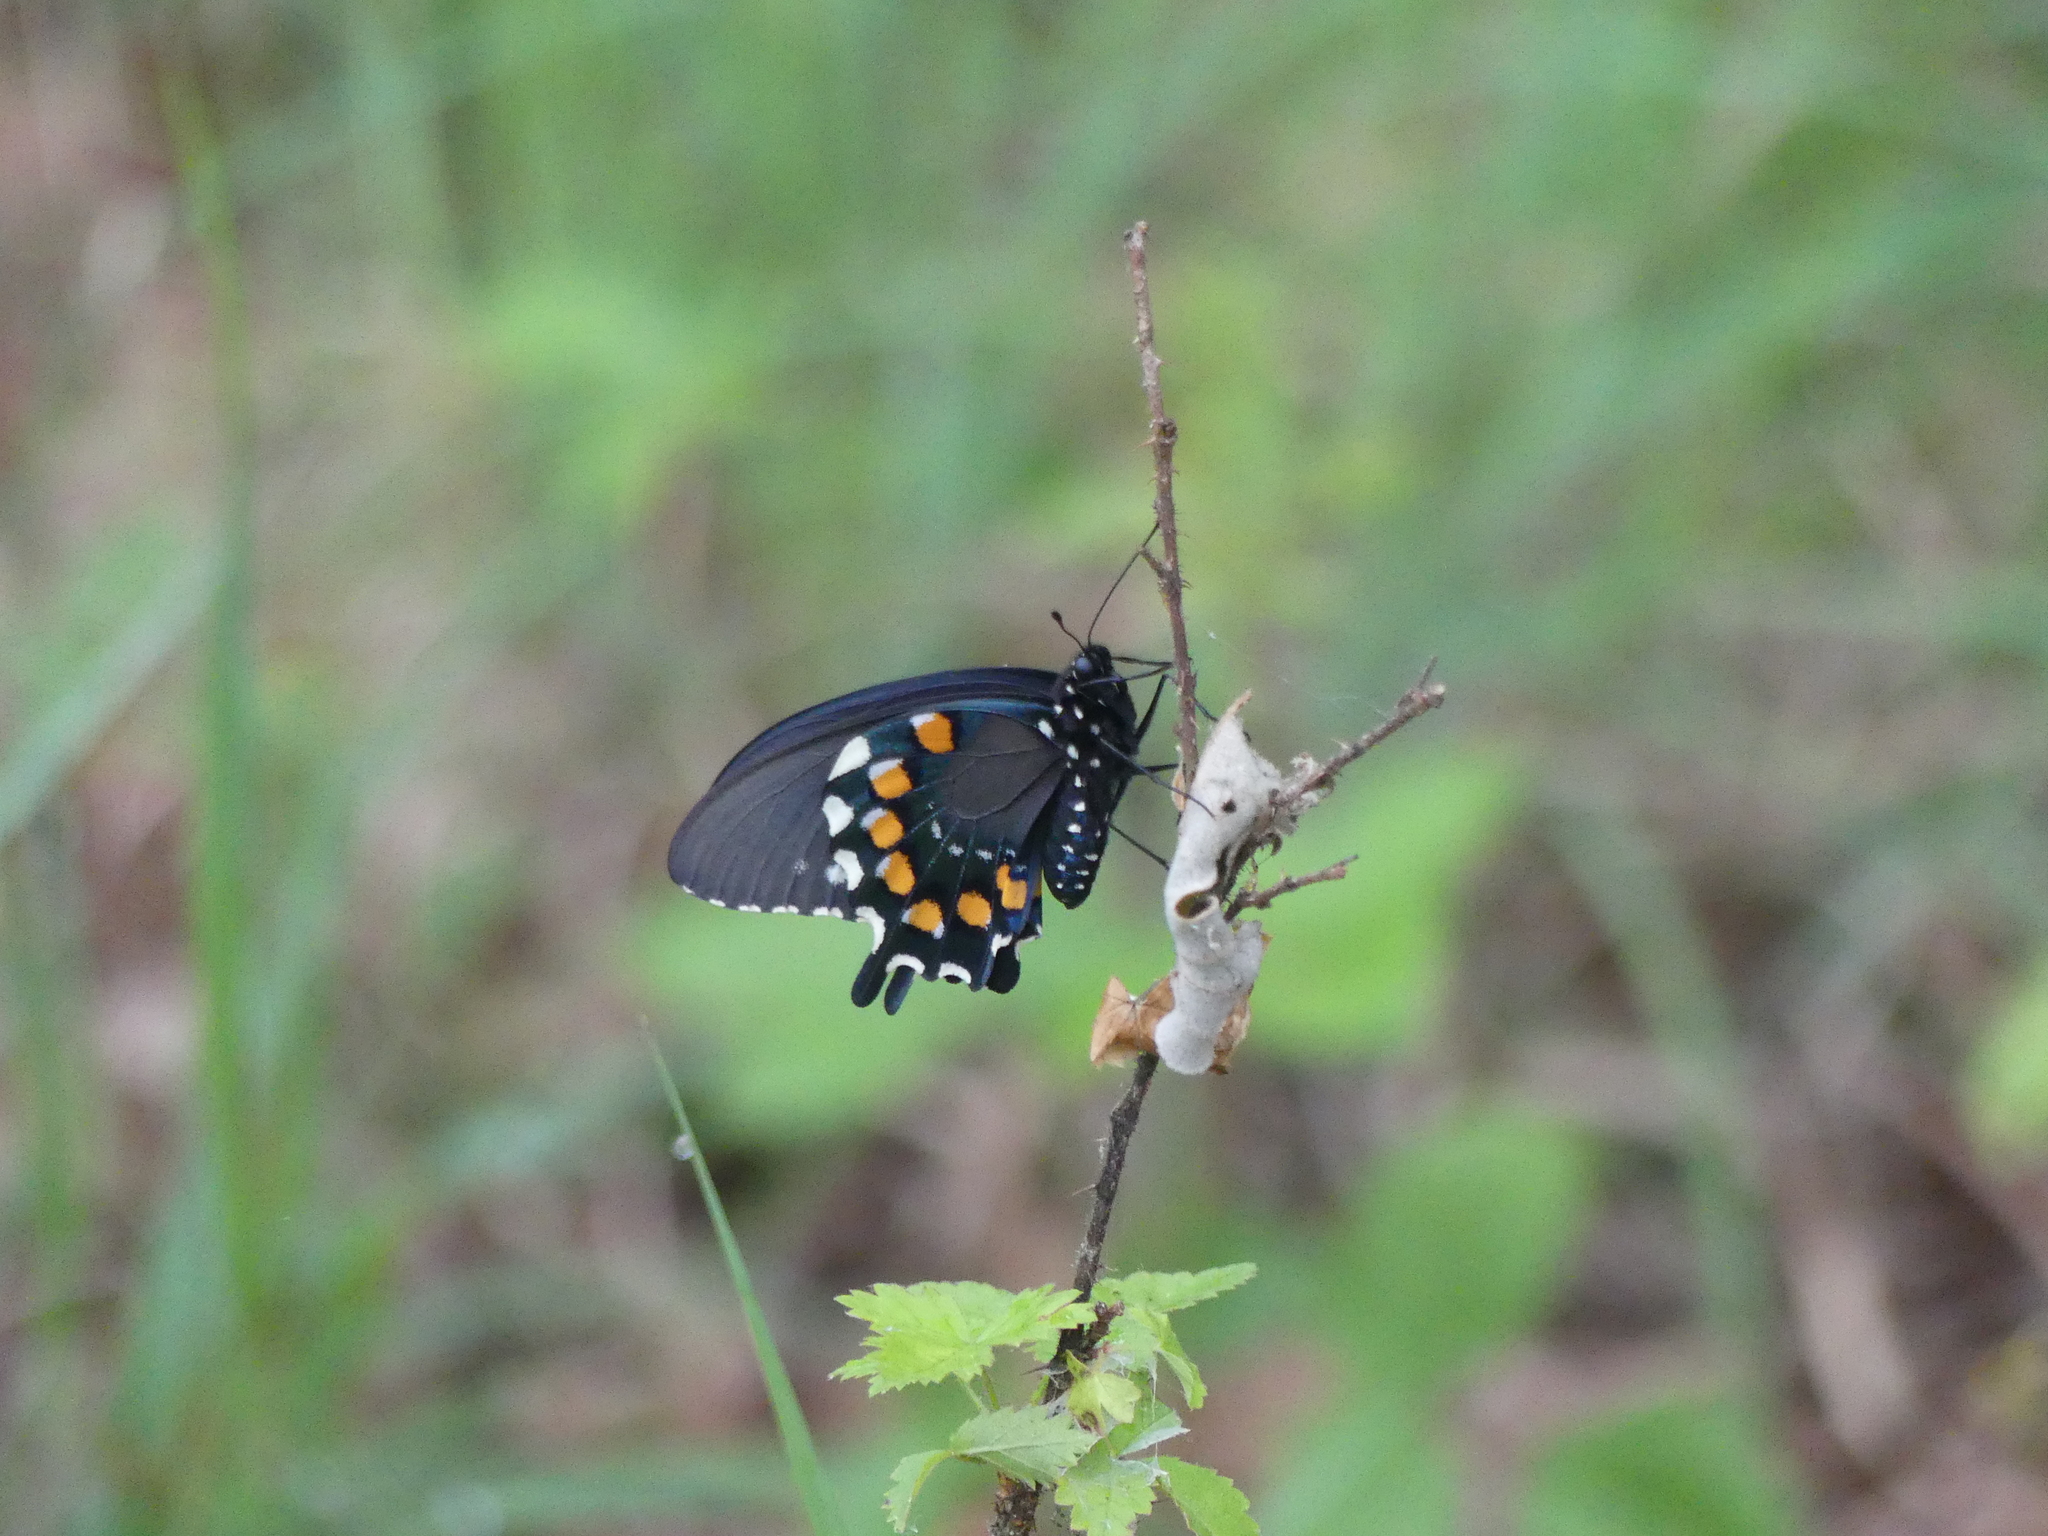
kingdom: Animalia
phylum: Arthropoda
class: Insecta
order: Lepidoptera
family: Papilionidae
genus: Battus
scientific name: Battus philenor
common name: Pipevine swallowtail
